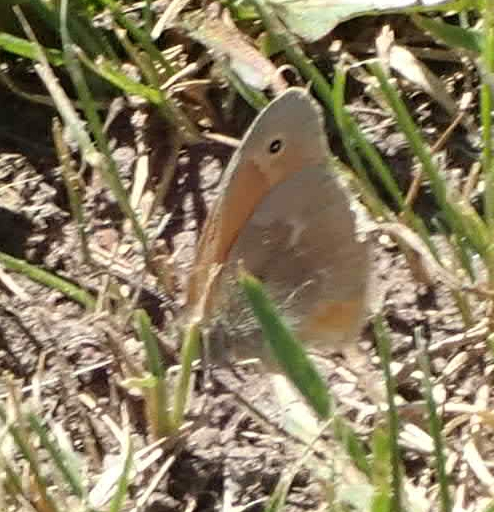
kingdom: Animalia
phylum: Arthropoda
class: Insecta
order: Lepidoptera
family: Nymphalidae
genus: Coenonympha
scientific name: Coenonympha california
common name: Common ringlet
